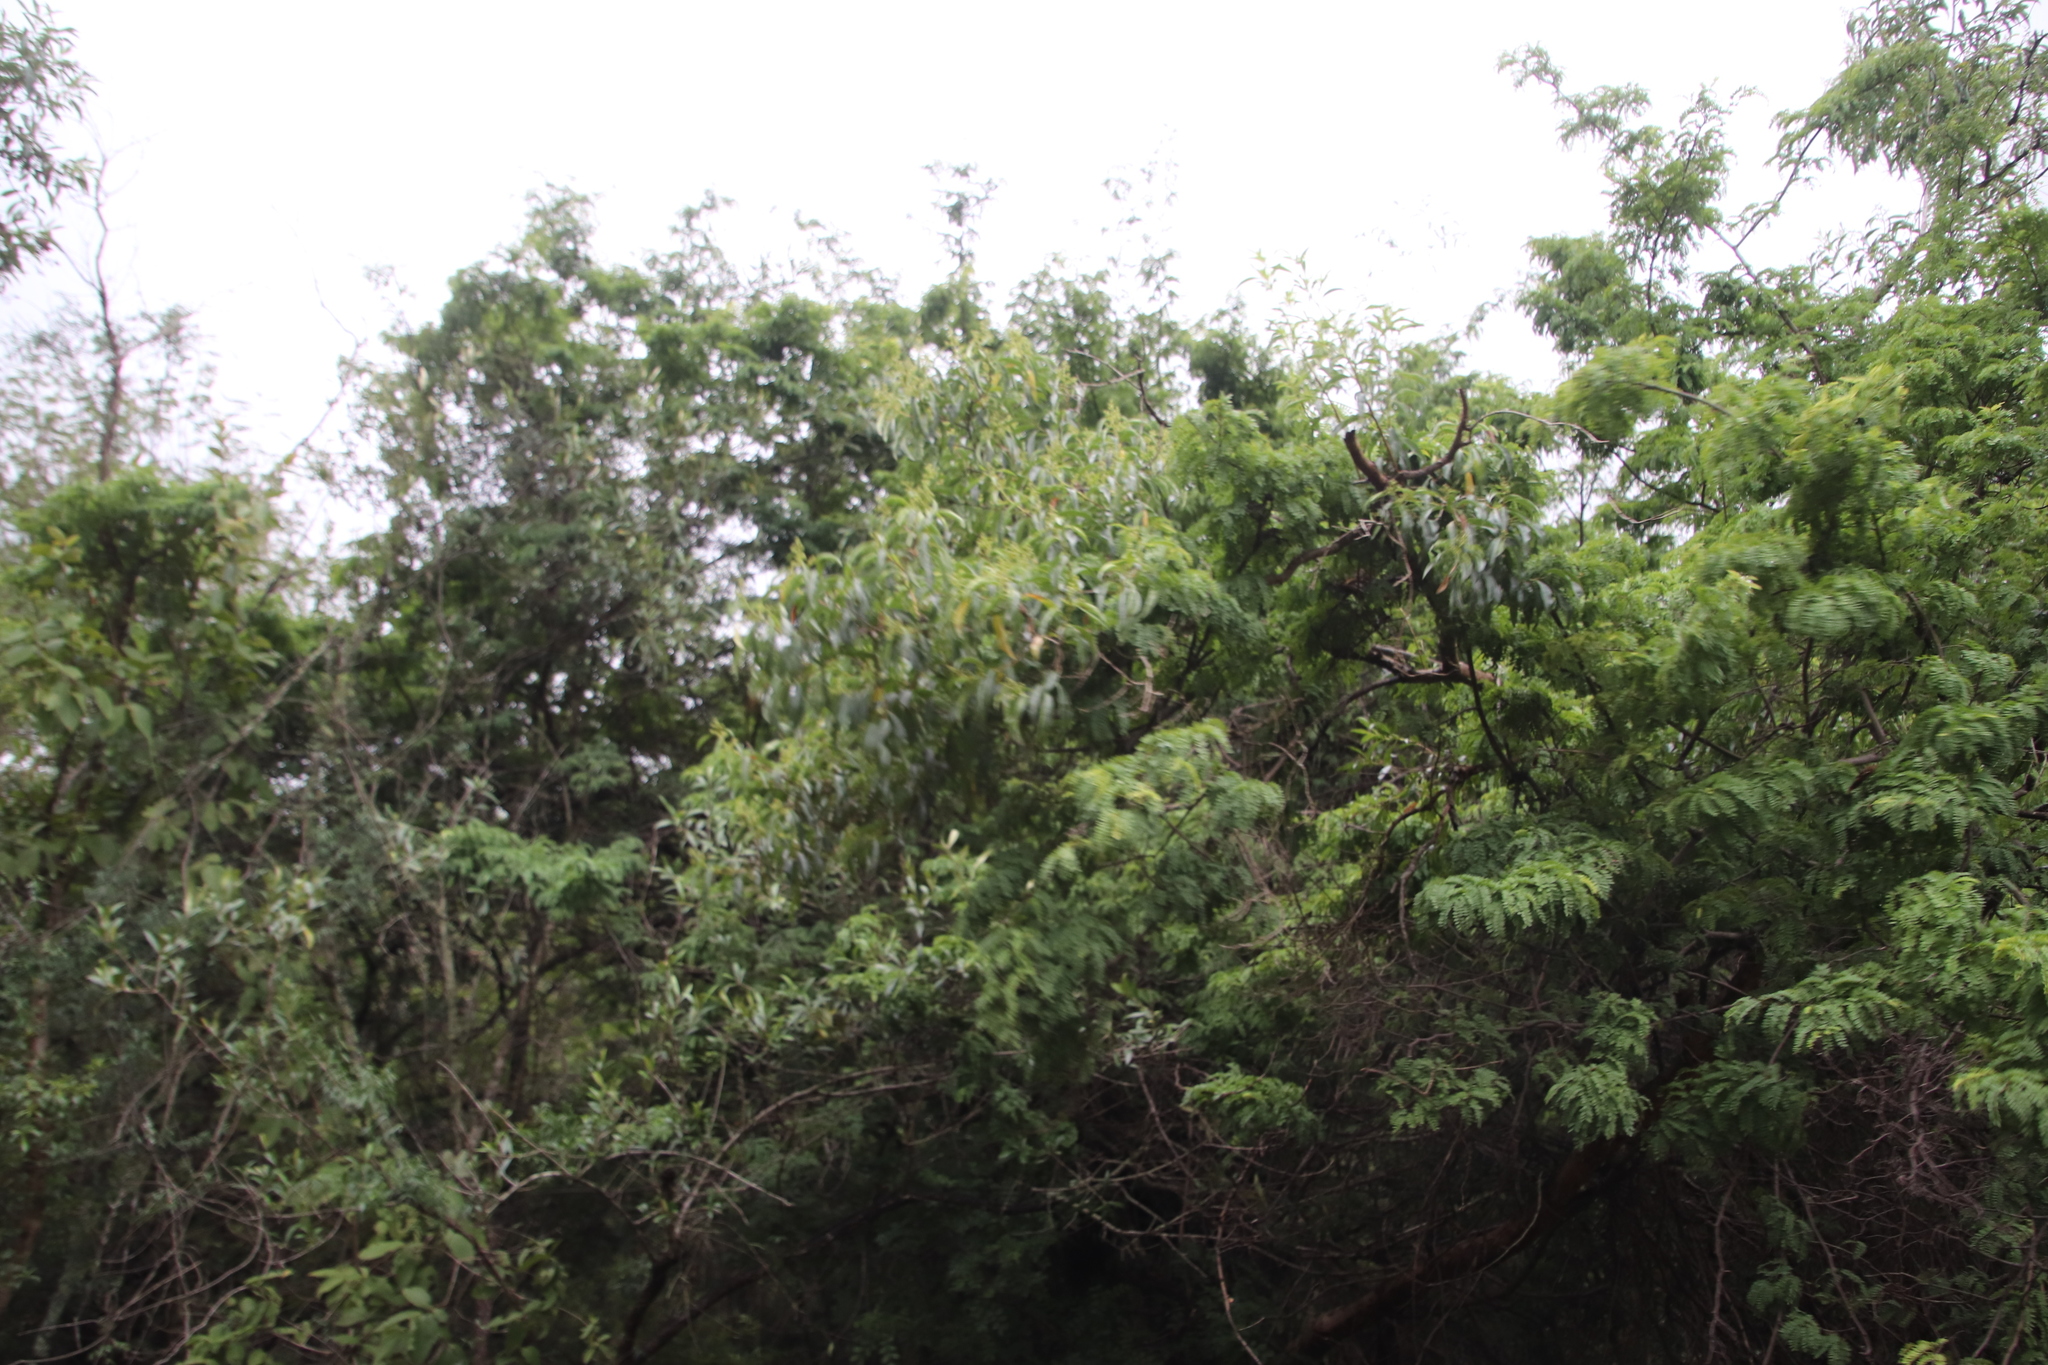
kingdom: Plantae
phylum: Tracheophyta
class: Magnoliopsida
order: Myrtales
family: Myrtaceae
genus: Heteropyxis
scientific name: Heteropyxis natalensis
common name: Lavender tree
